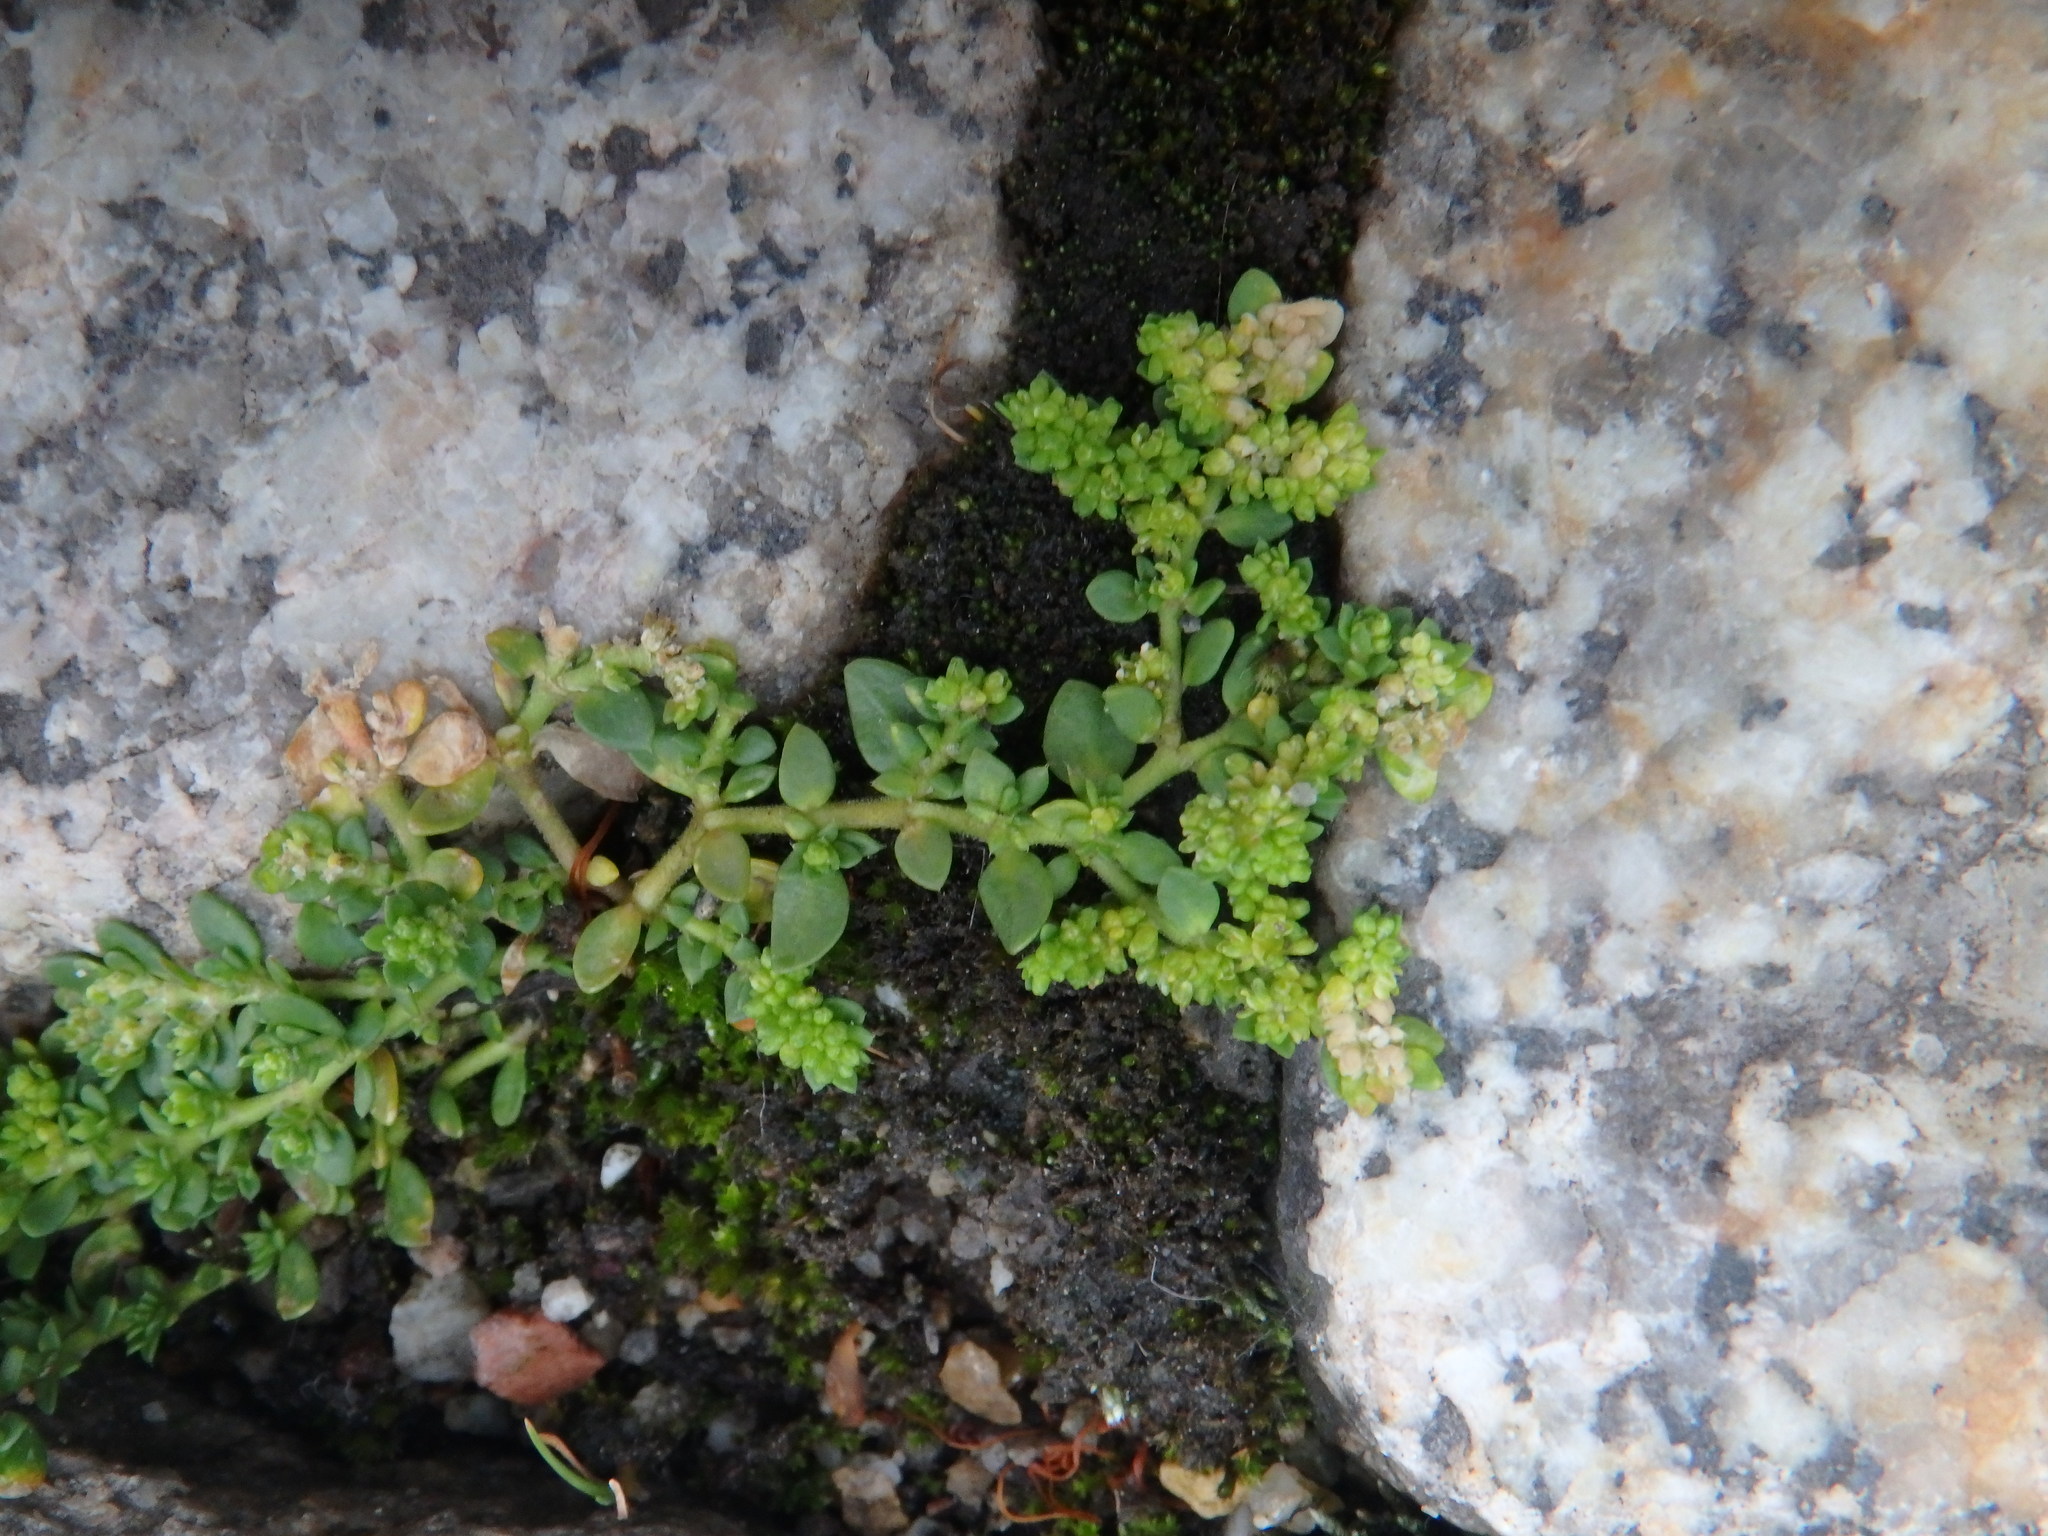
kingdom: Plantae
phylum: Tracheophyta
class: Magnoliopsida
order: Caryophyllales
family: Caryophyllaceae
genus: Herniaria
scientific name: Herniaria glabra
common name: Smooth rupturewort
